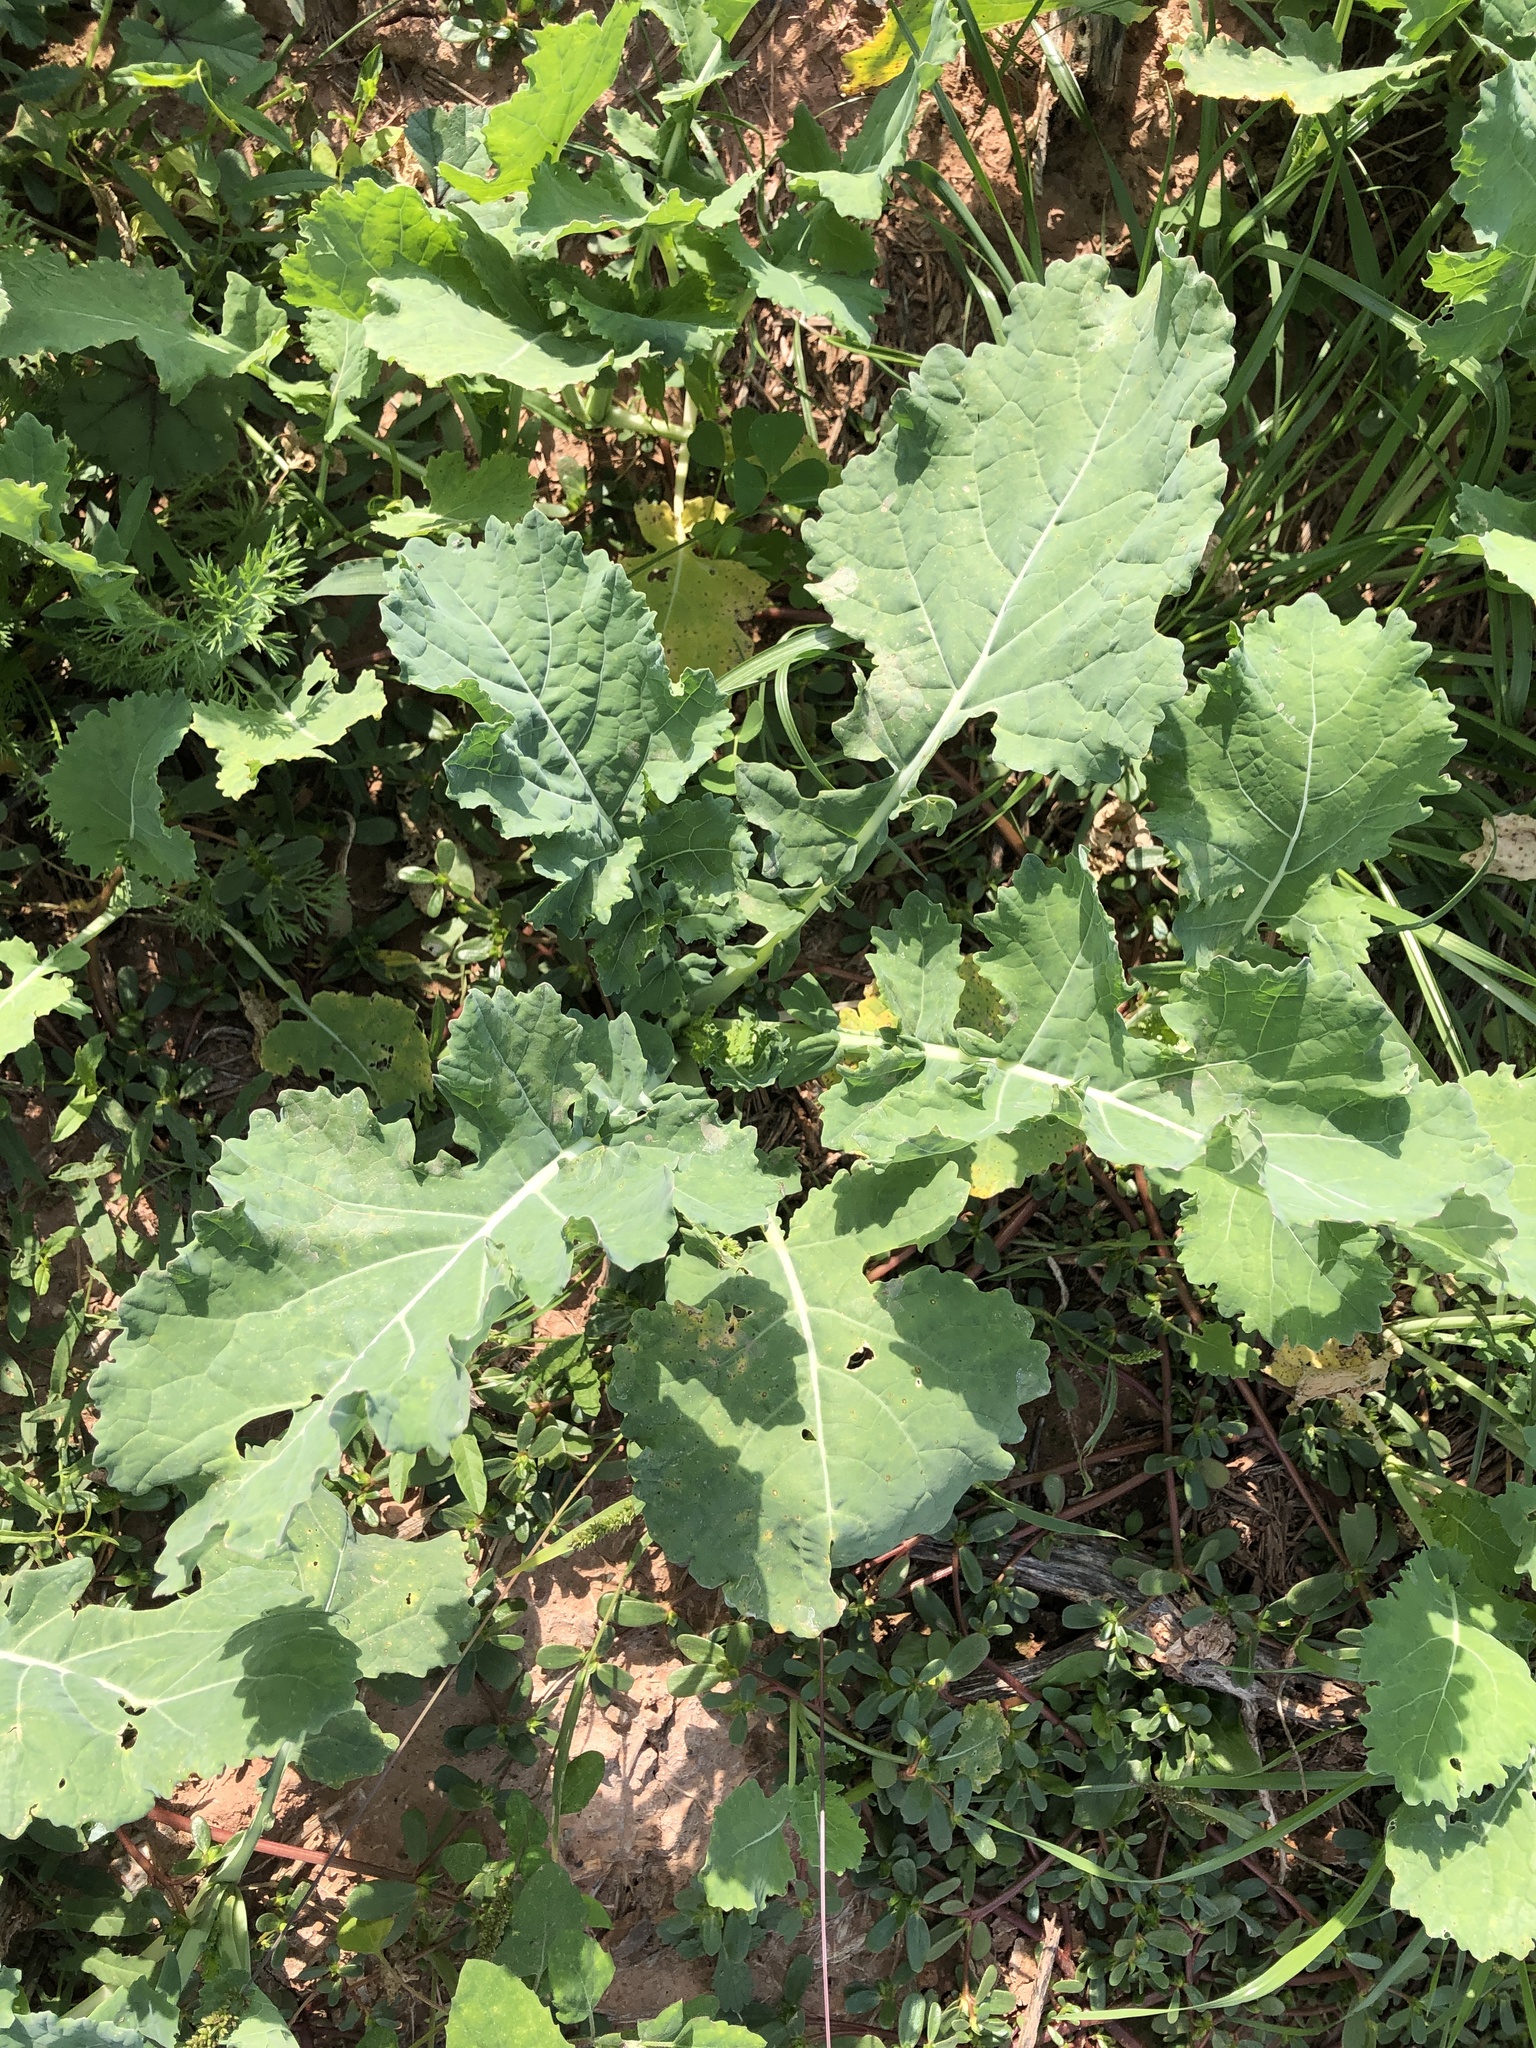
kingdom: Plantae
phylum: Tracheophyta
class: Magnoliopsida
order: Brassicales
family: Brassicaceae
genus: Brassica
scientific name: Brassica napus
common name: Rape
